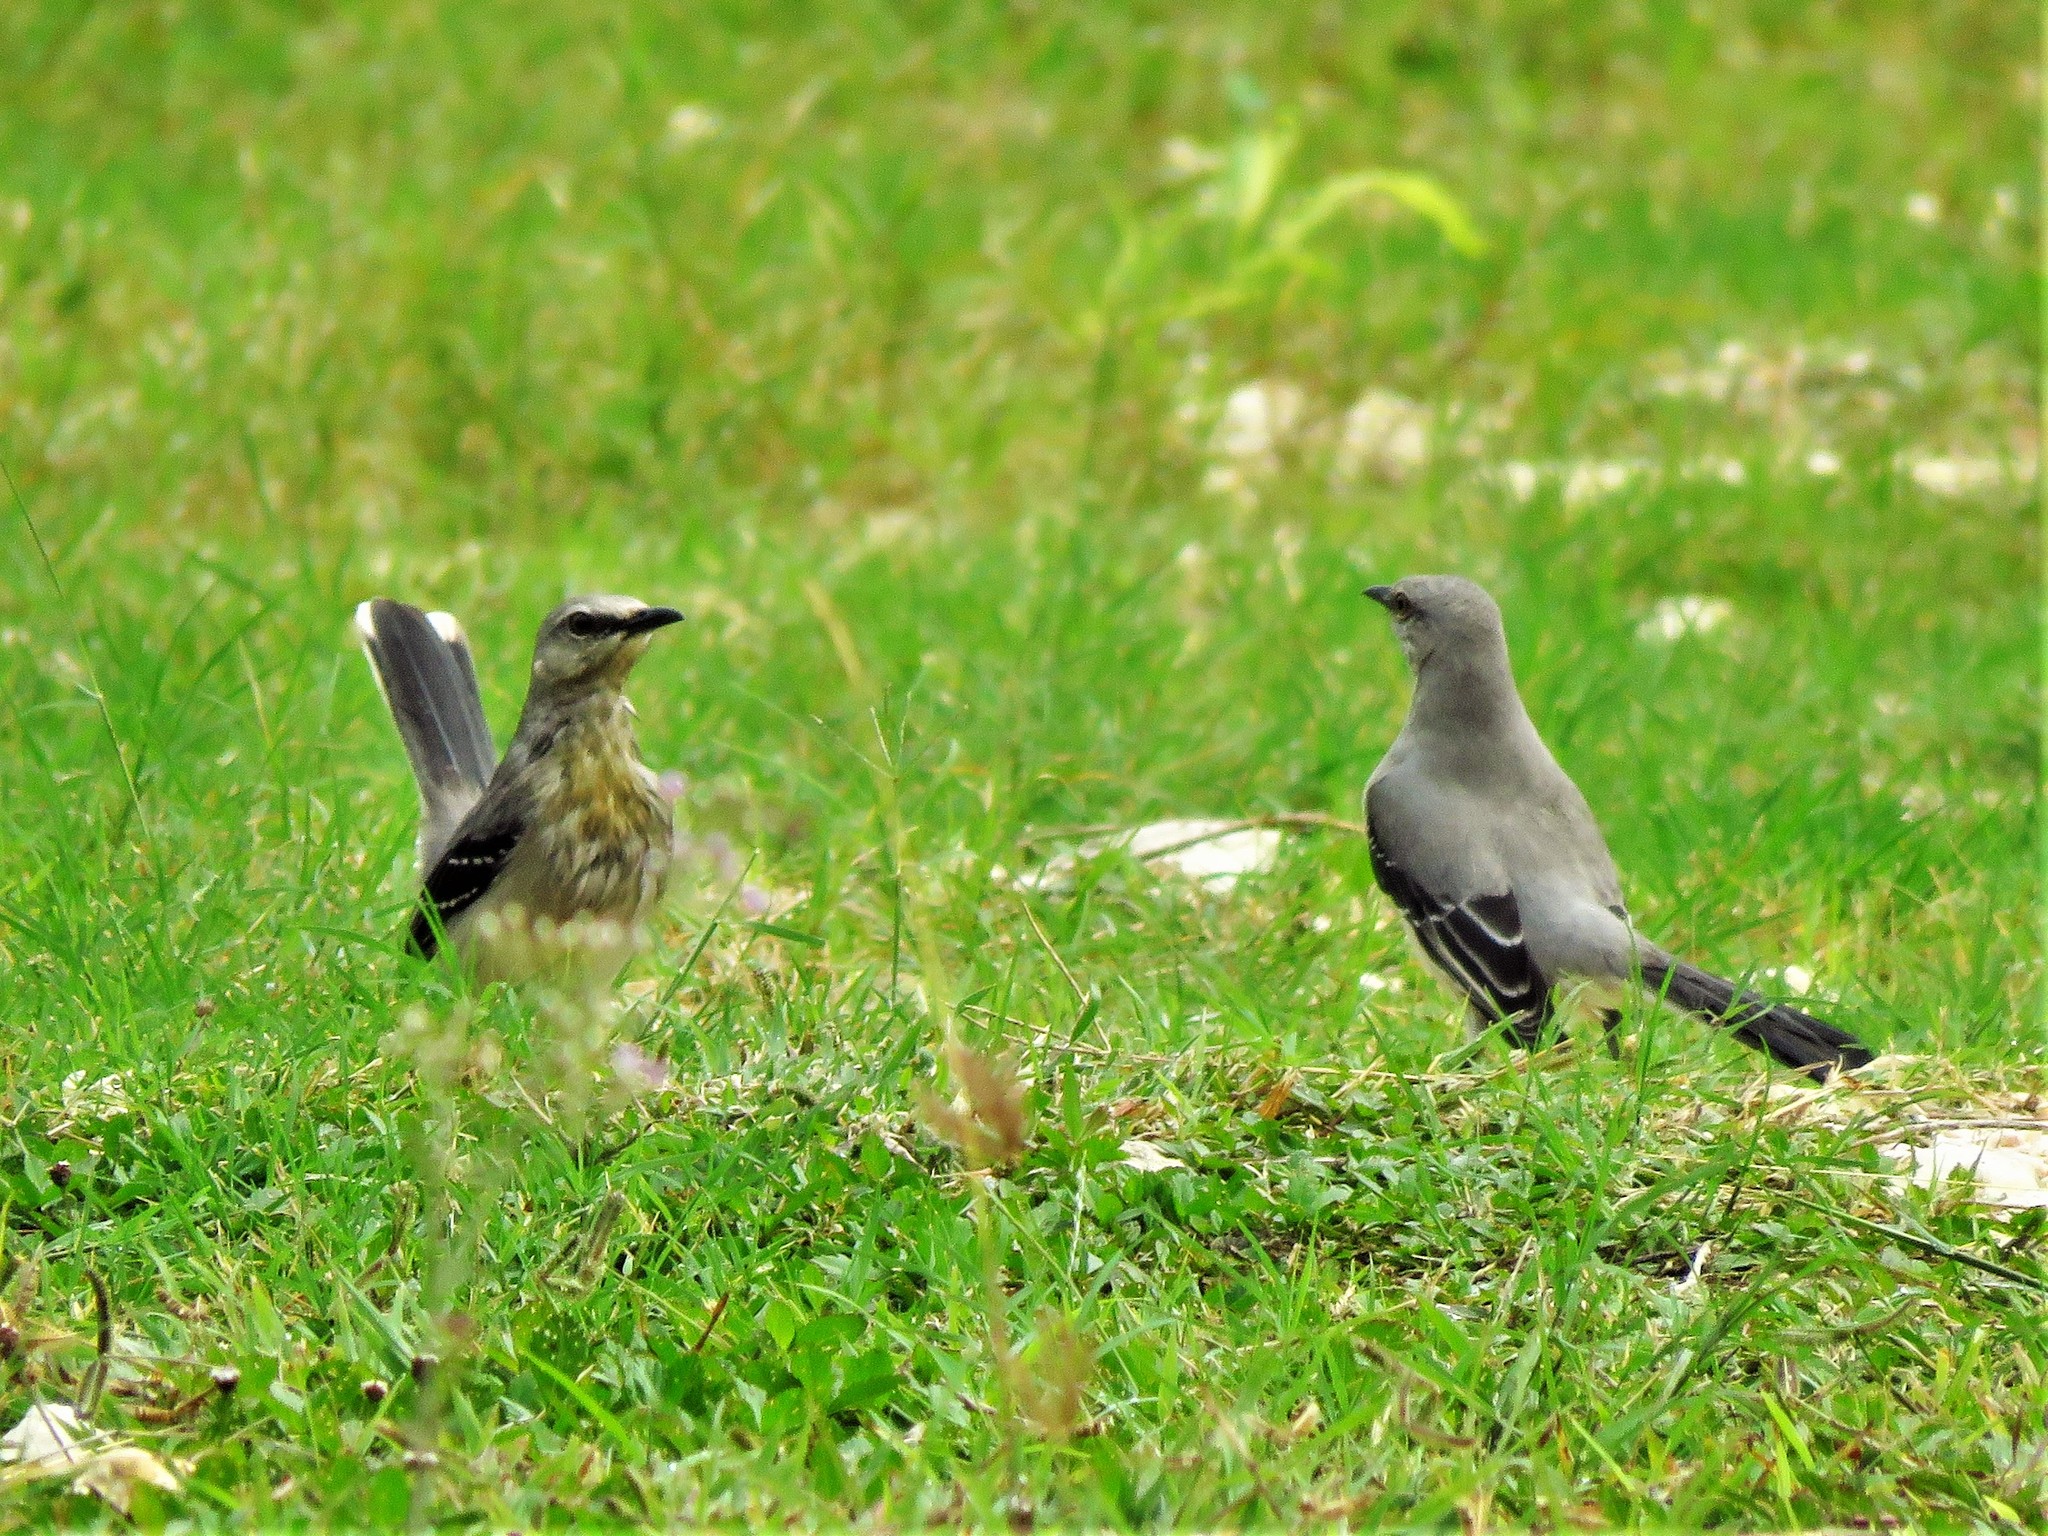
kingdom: Animalia
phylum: Chordata
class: Aves
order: Passeriformes
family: Mimidae
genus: Mimus
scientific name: Mimus gilvus
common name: Tropical mockingbird
